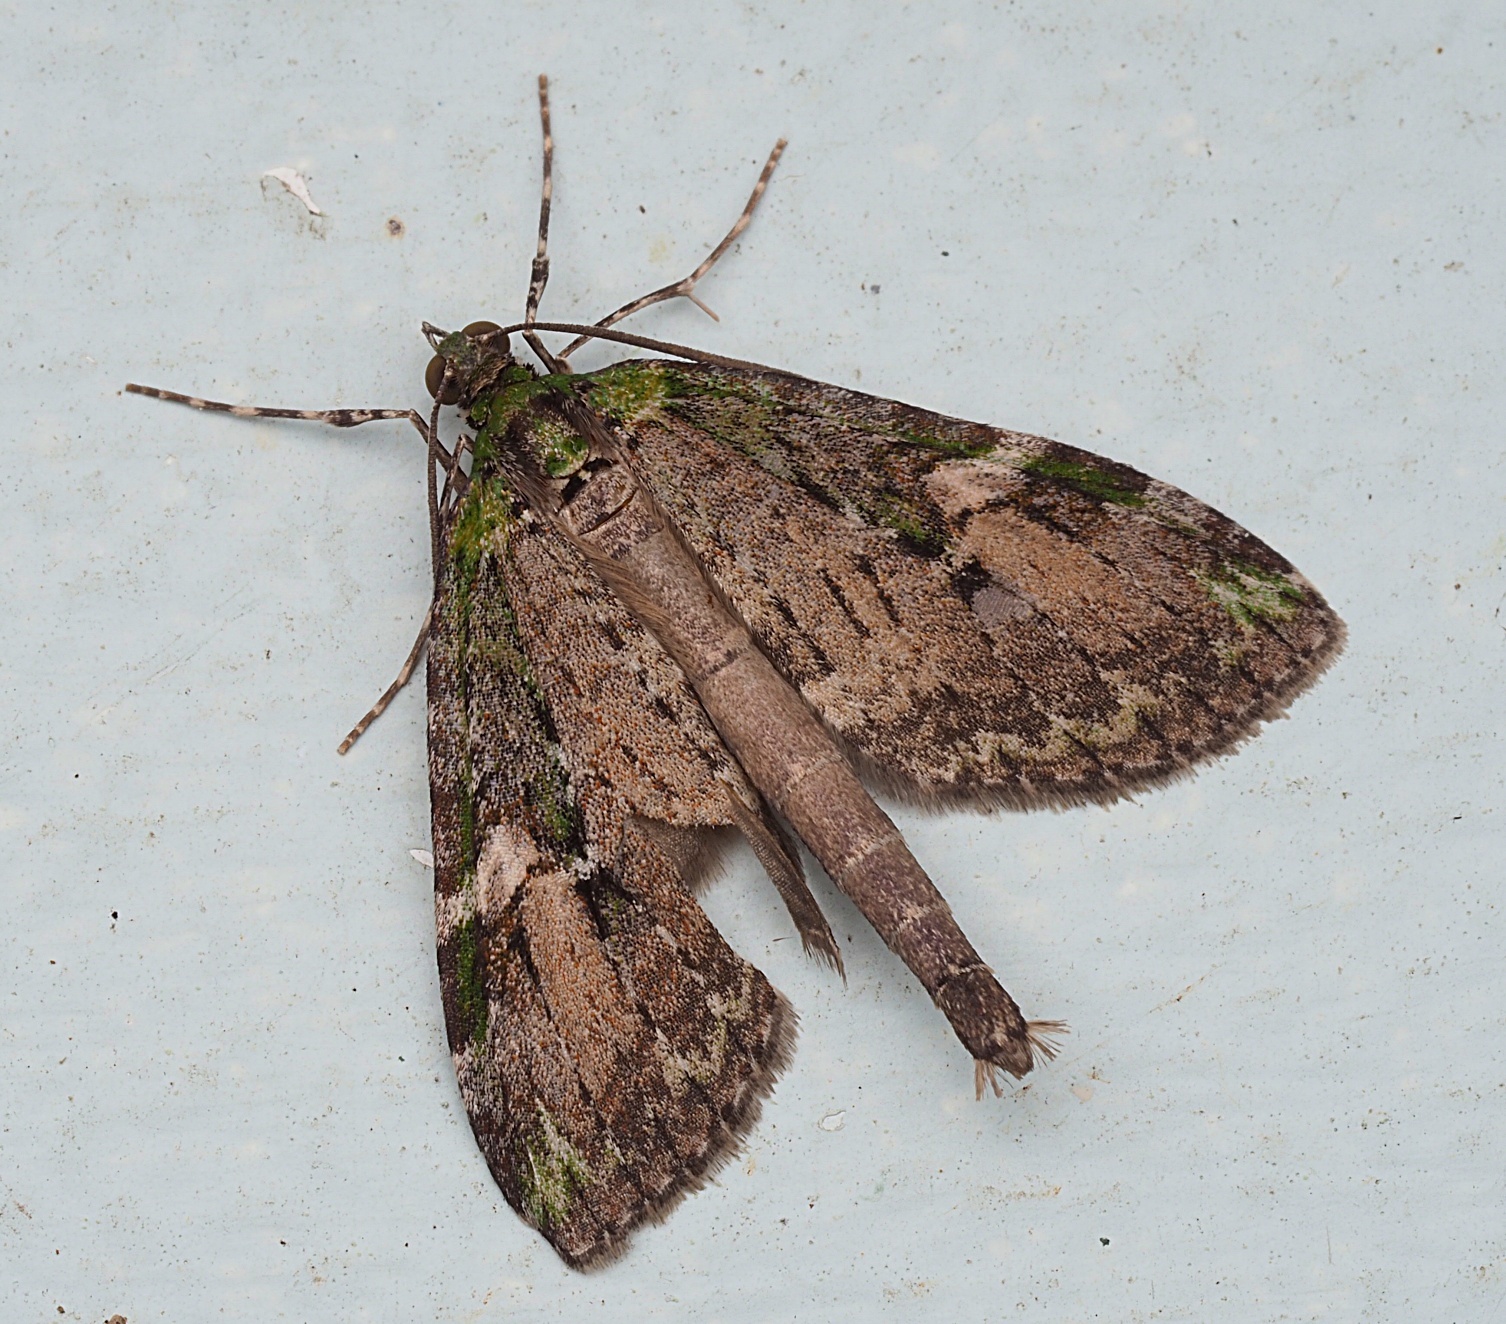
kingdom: Animalia
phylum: Arthropoda
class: Insecta
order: Lepidoptera
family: Geometridae
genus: Tatosoma
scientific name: Tatosoma topea
